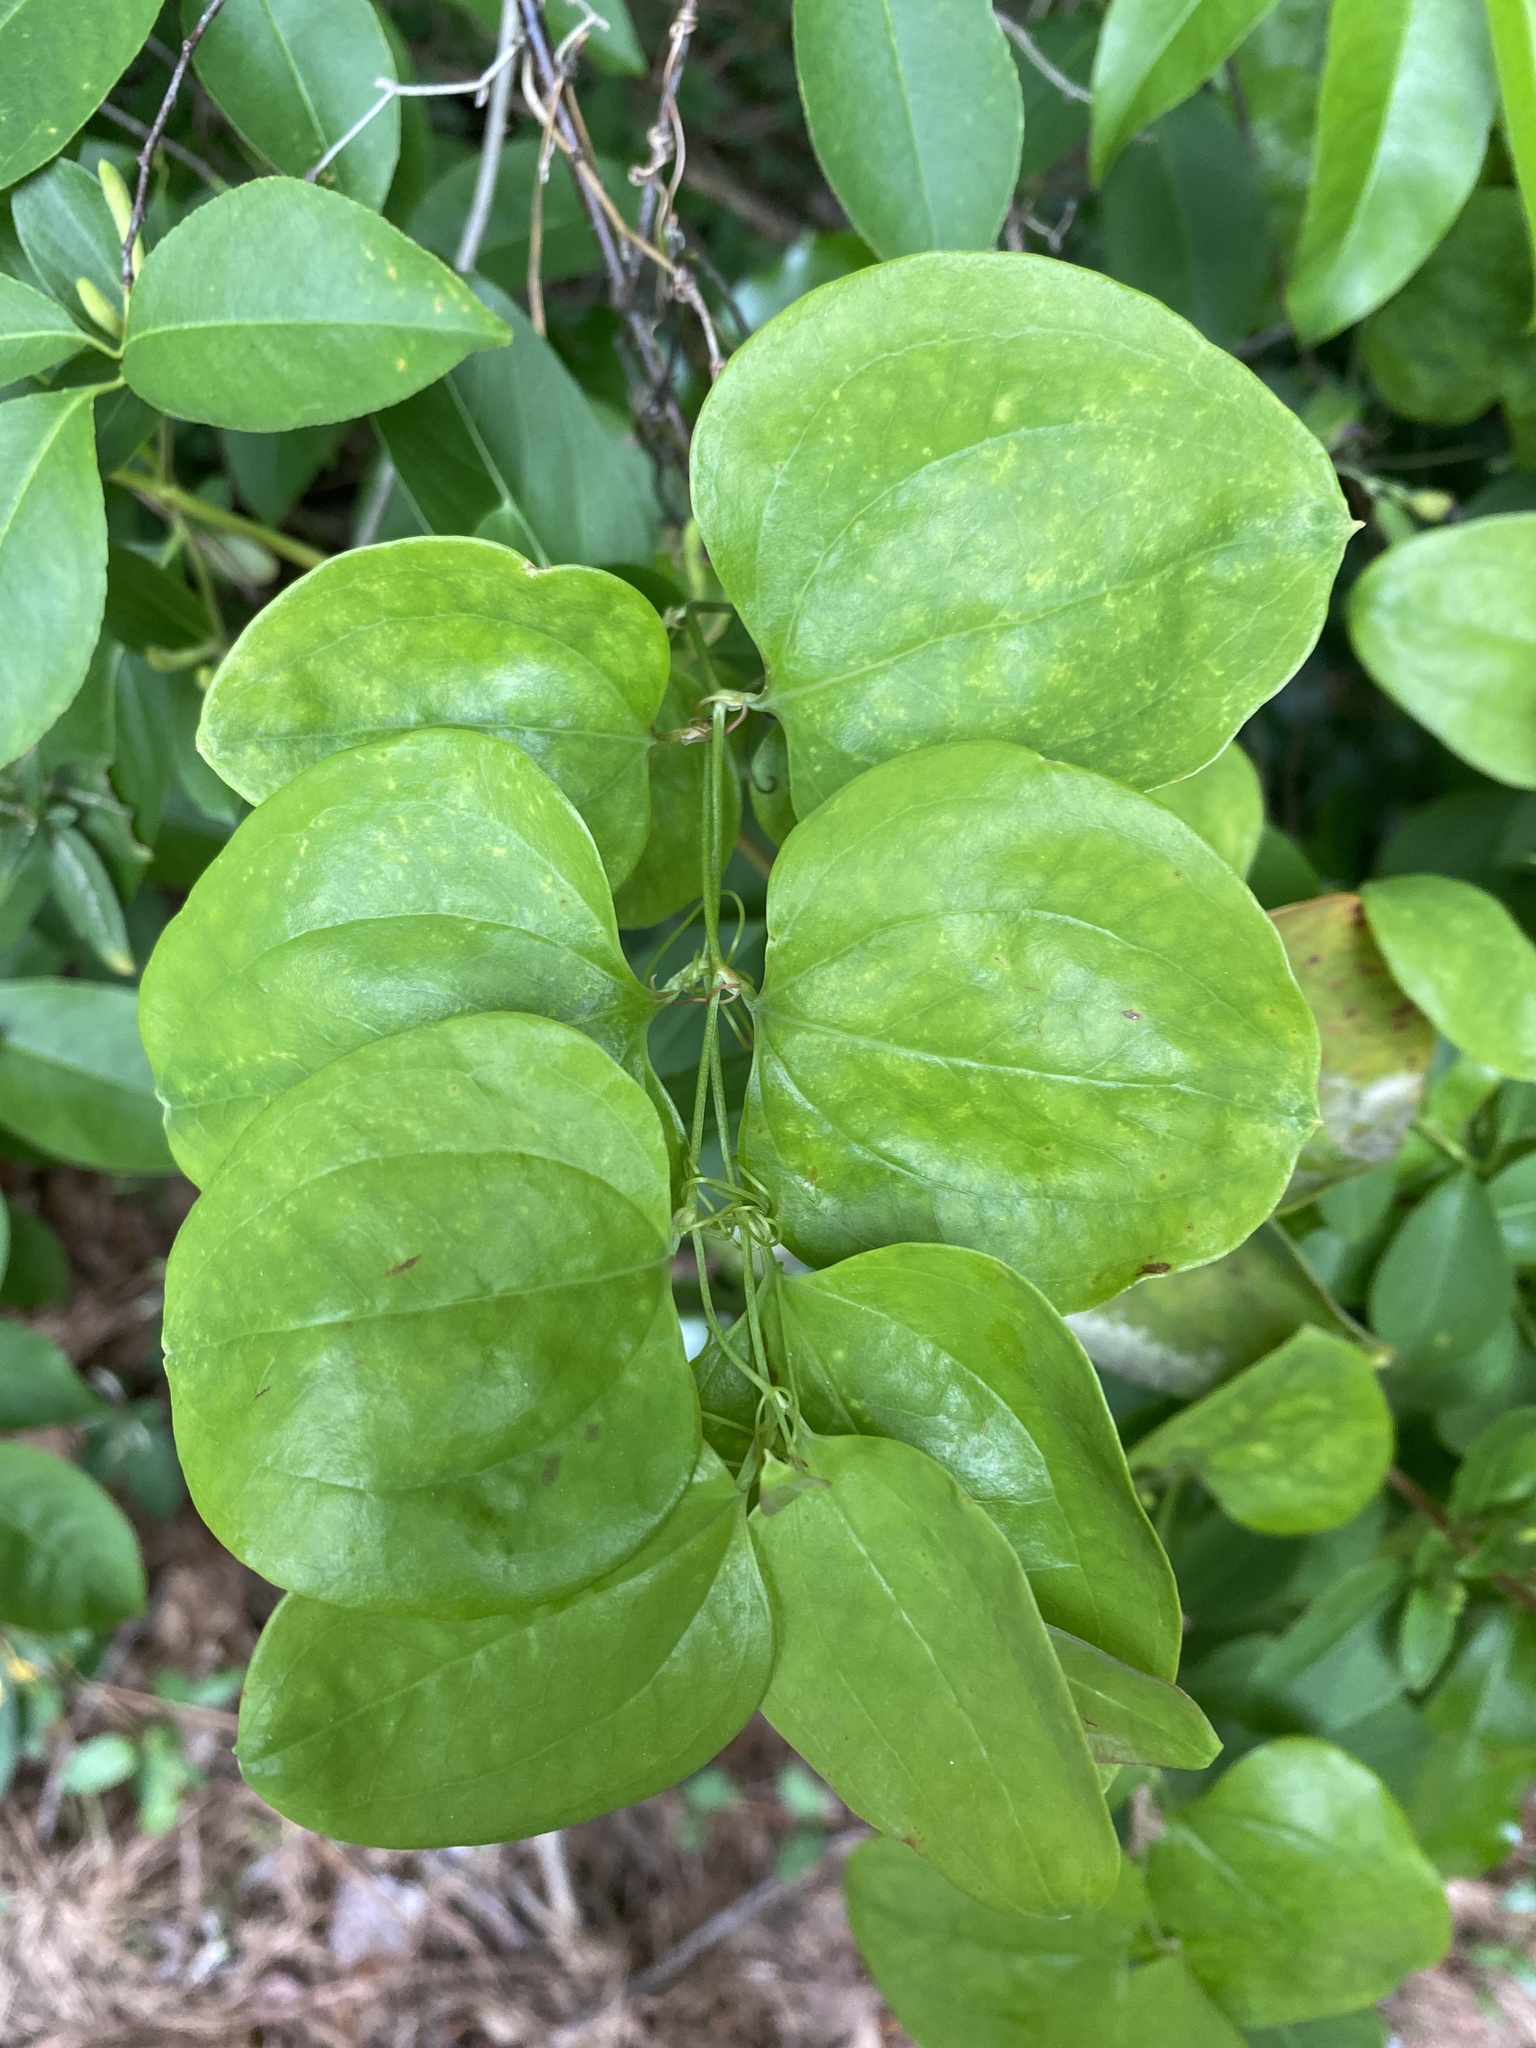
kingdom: Plantae
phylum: Tracheophyta
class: Liliopsida
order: Liliales
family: Smilacaceae
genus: Smilax
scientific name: Smilax rotundifolia
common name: Bullbriar
